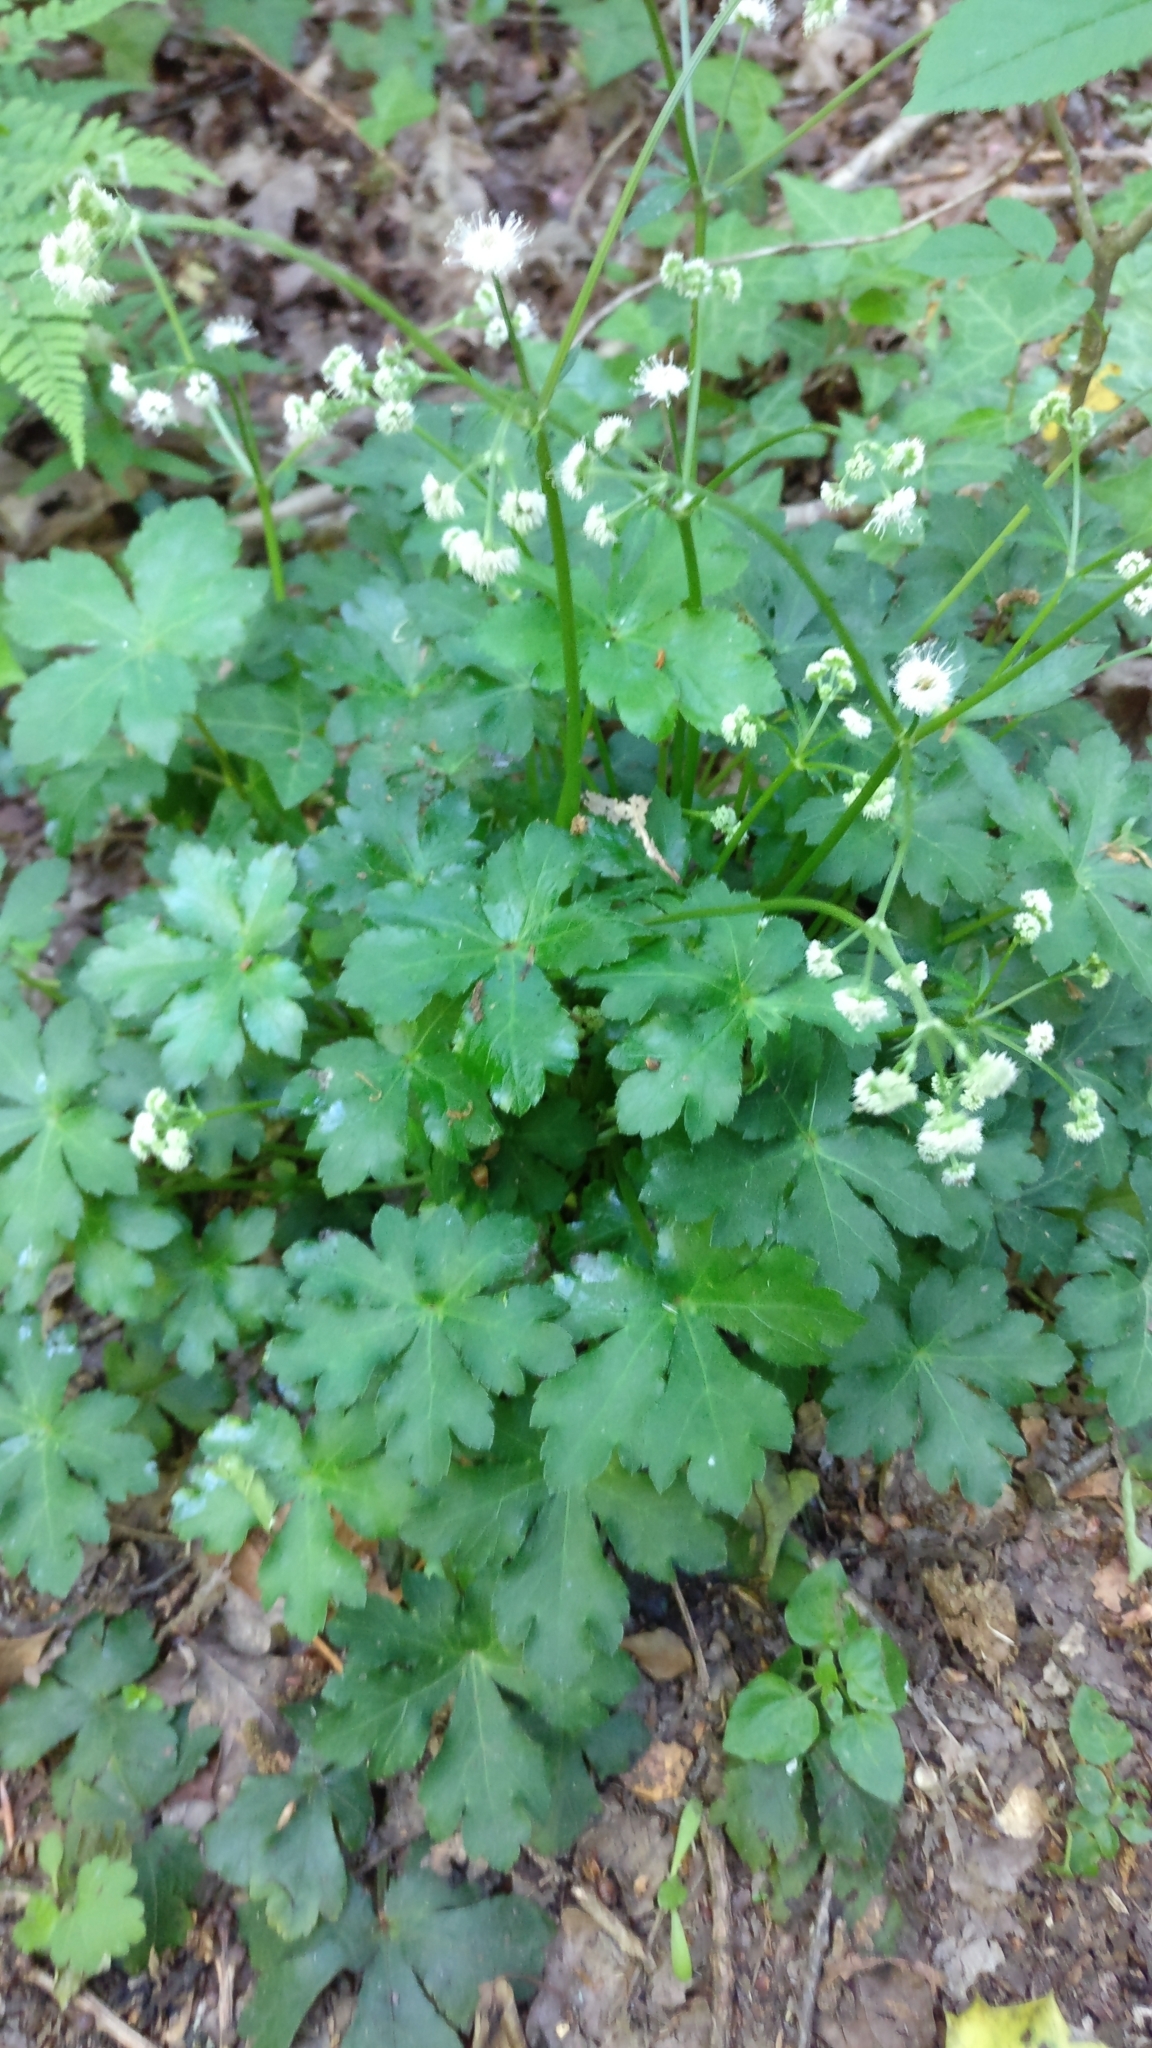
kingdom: Plantae
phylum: Tracheophyta
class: Magnoliopsida
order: Apiales
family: Apiaceae
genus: Sanicula
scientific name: Sanicula europaea
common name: Sanicle
